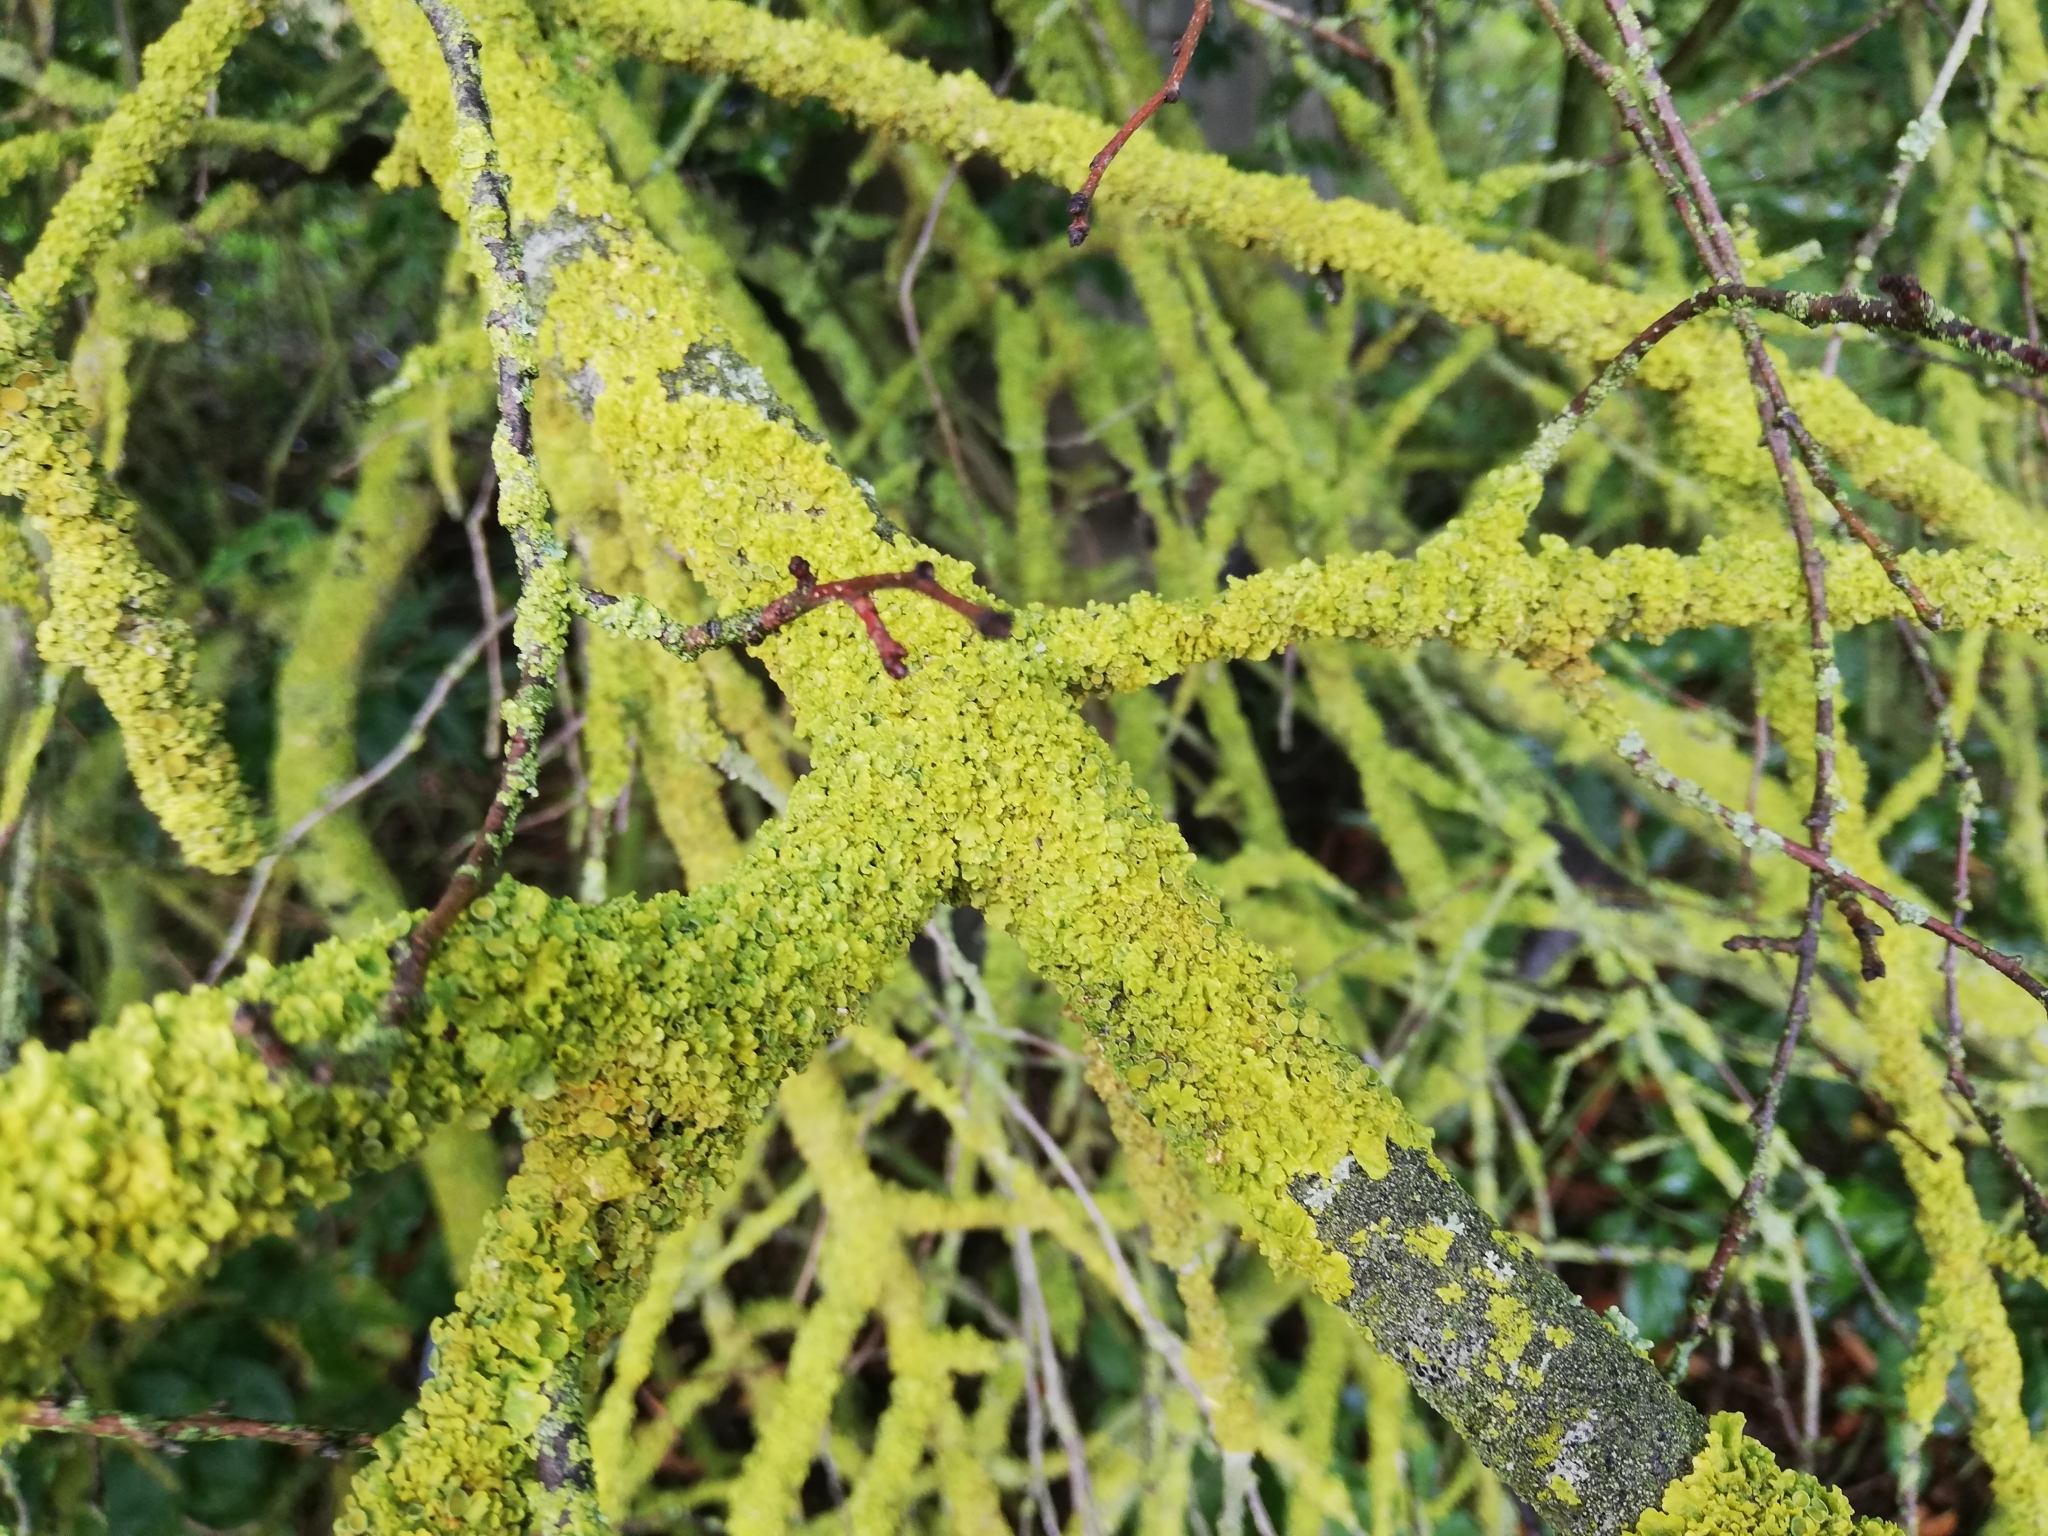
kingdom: Fungi
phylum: Ascomycota
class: Lecanoromycetes
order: Teloschistales
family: Teloschistaceae
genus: Xanthoria
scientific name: Xanthoria parietina
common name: Common orange lichen
